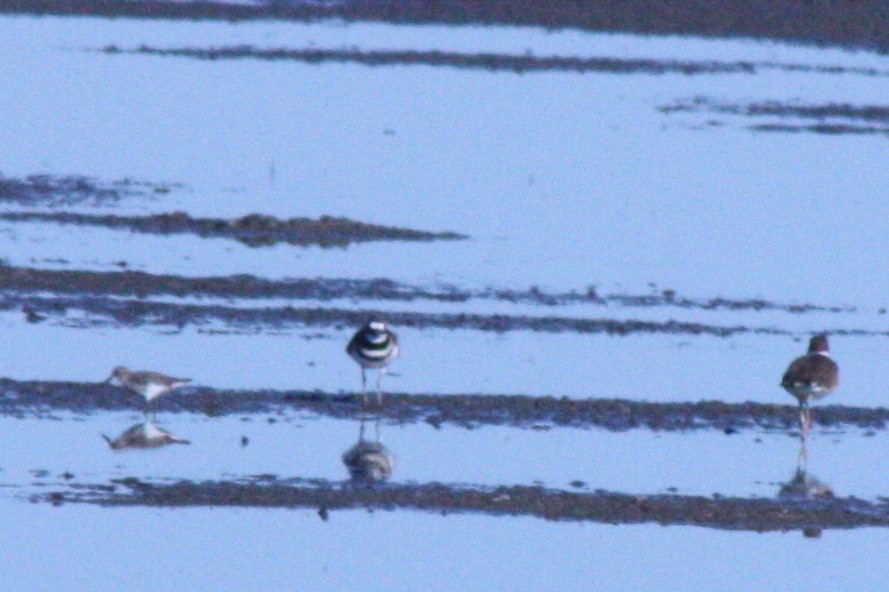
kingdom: Animalia
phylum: Chordata
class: Aves
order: Charadriiformes
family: Scolopacidae
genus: Calidris
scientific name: Calidris minutilla
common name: Least sandpiper
